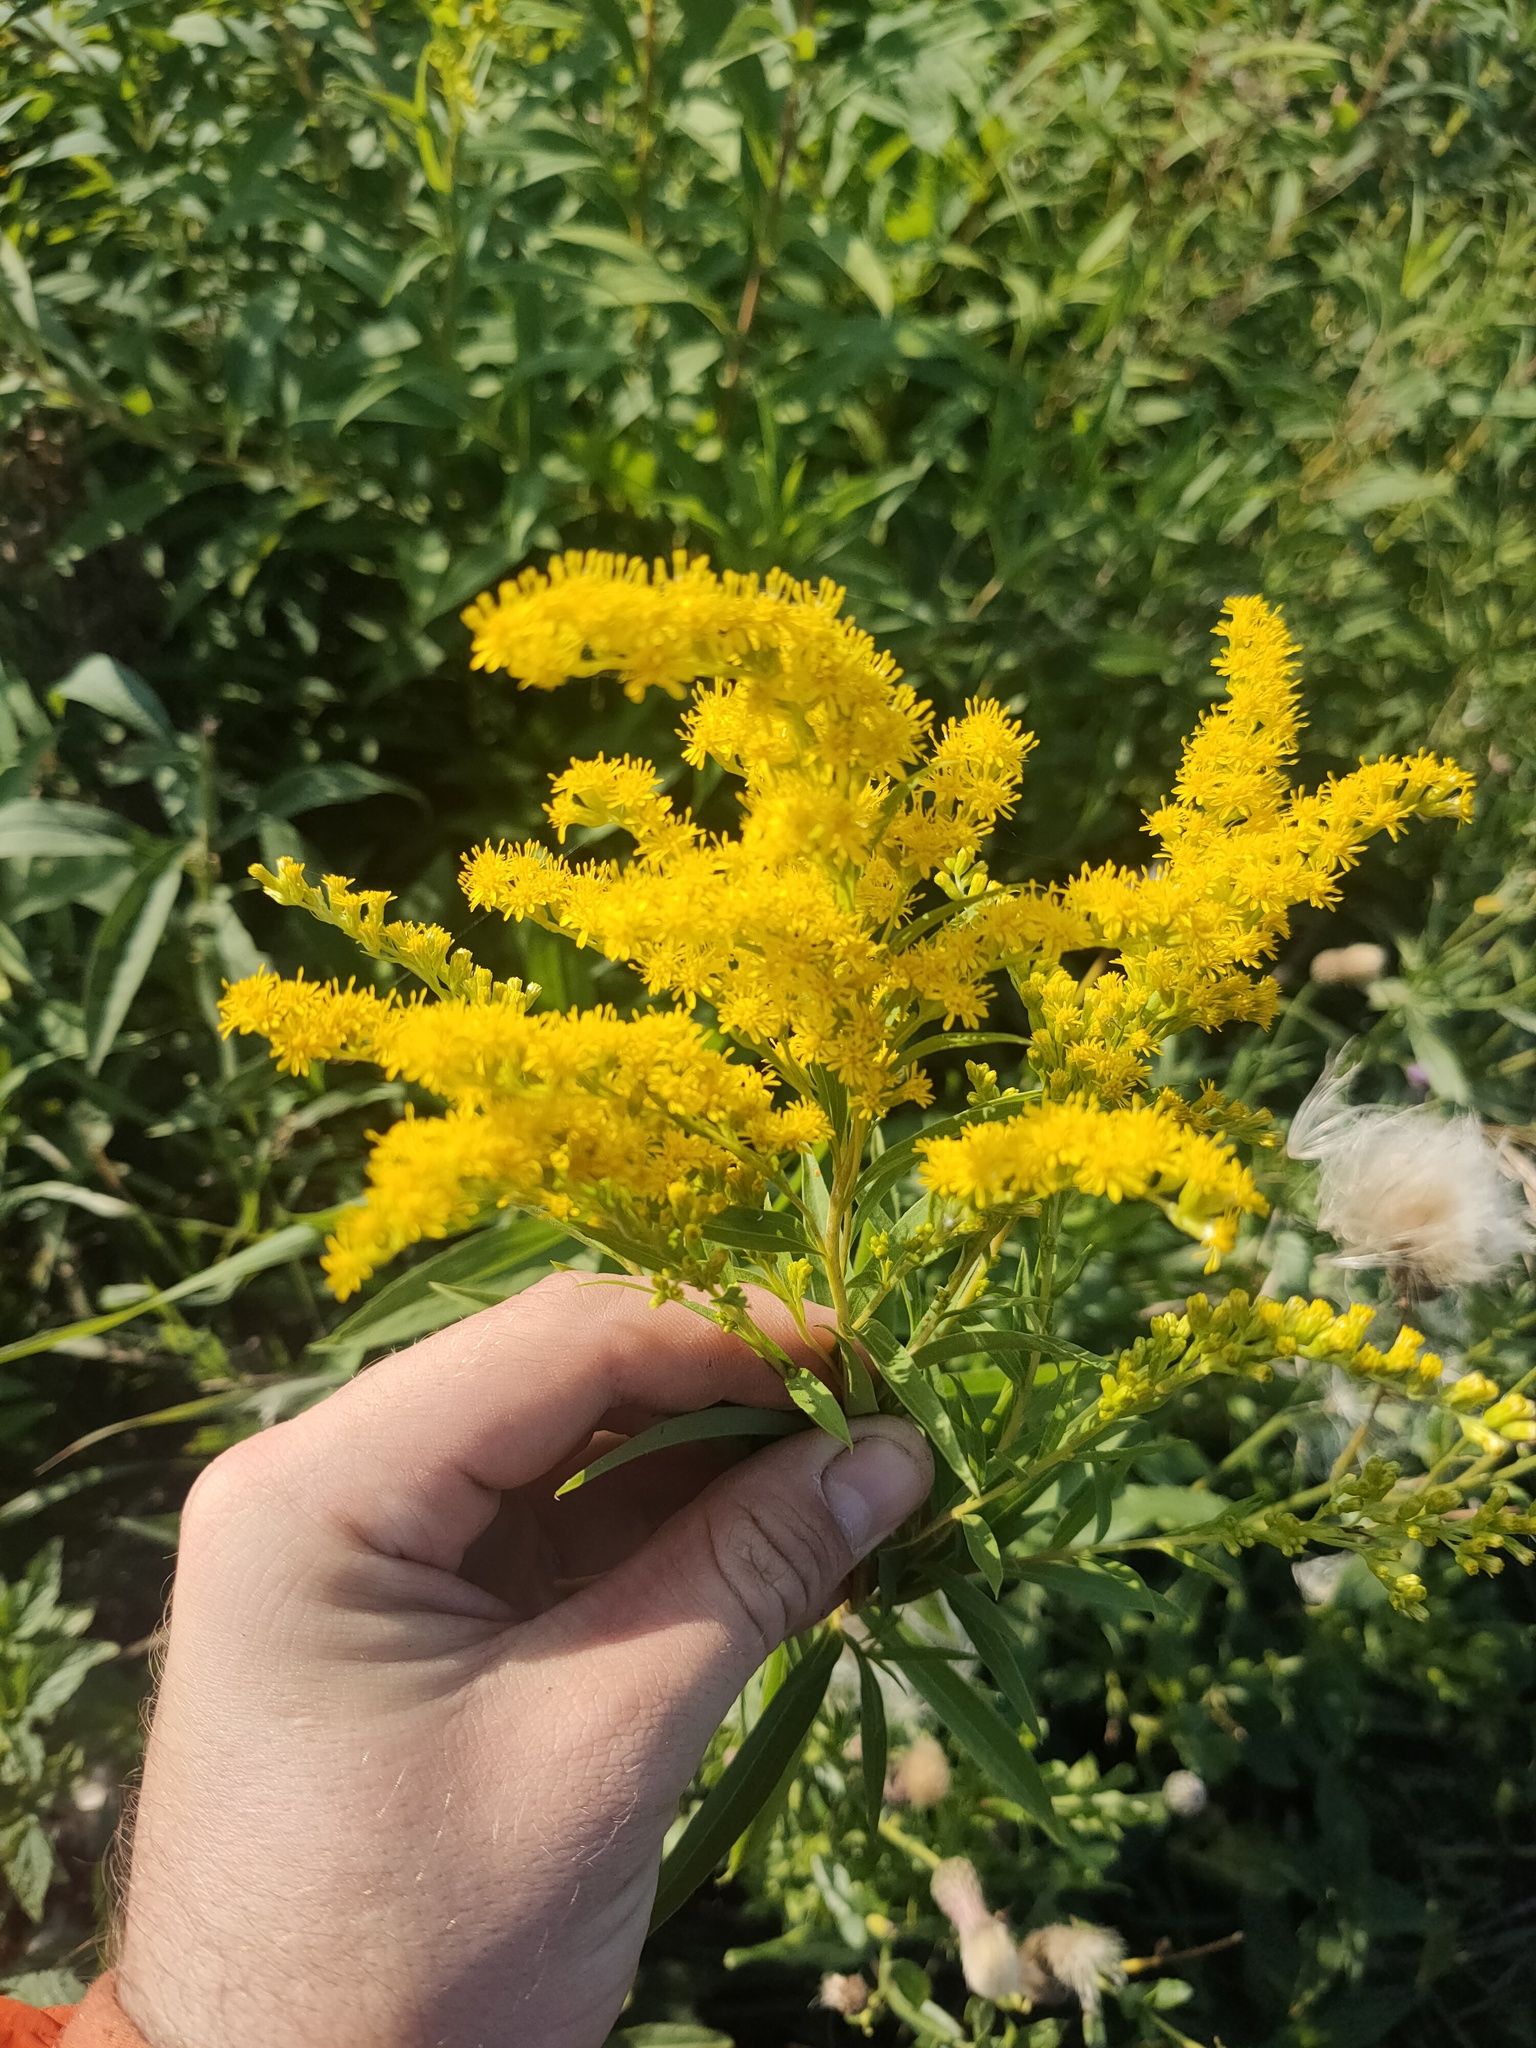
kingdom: Plantae
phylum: Tracheophyta
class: Magnoliopsida
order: Asterales
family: Asteraceae
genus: Solidago
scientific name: Solidago canadensis
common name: Canada goldenrod
